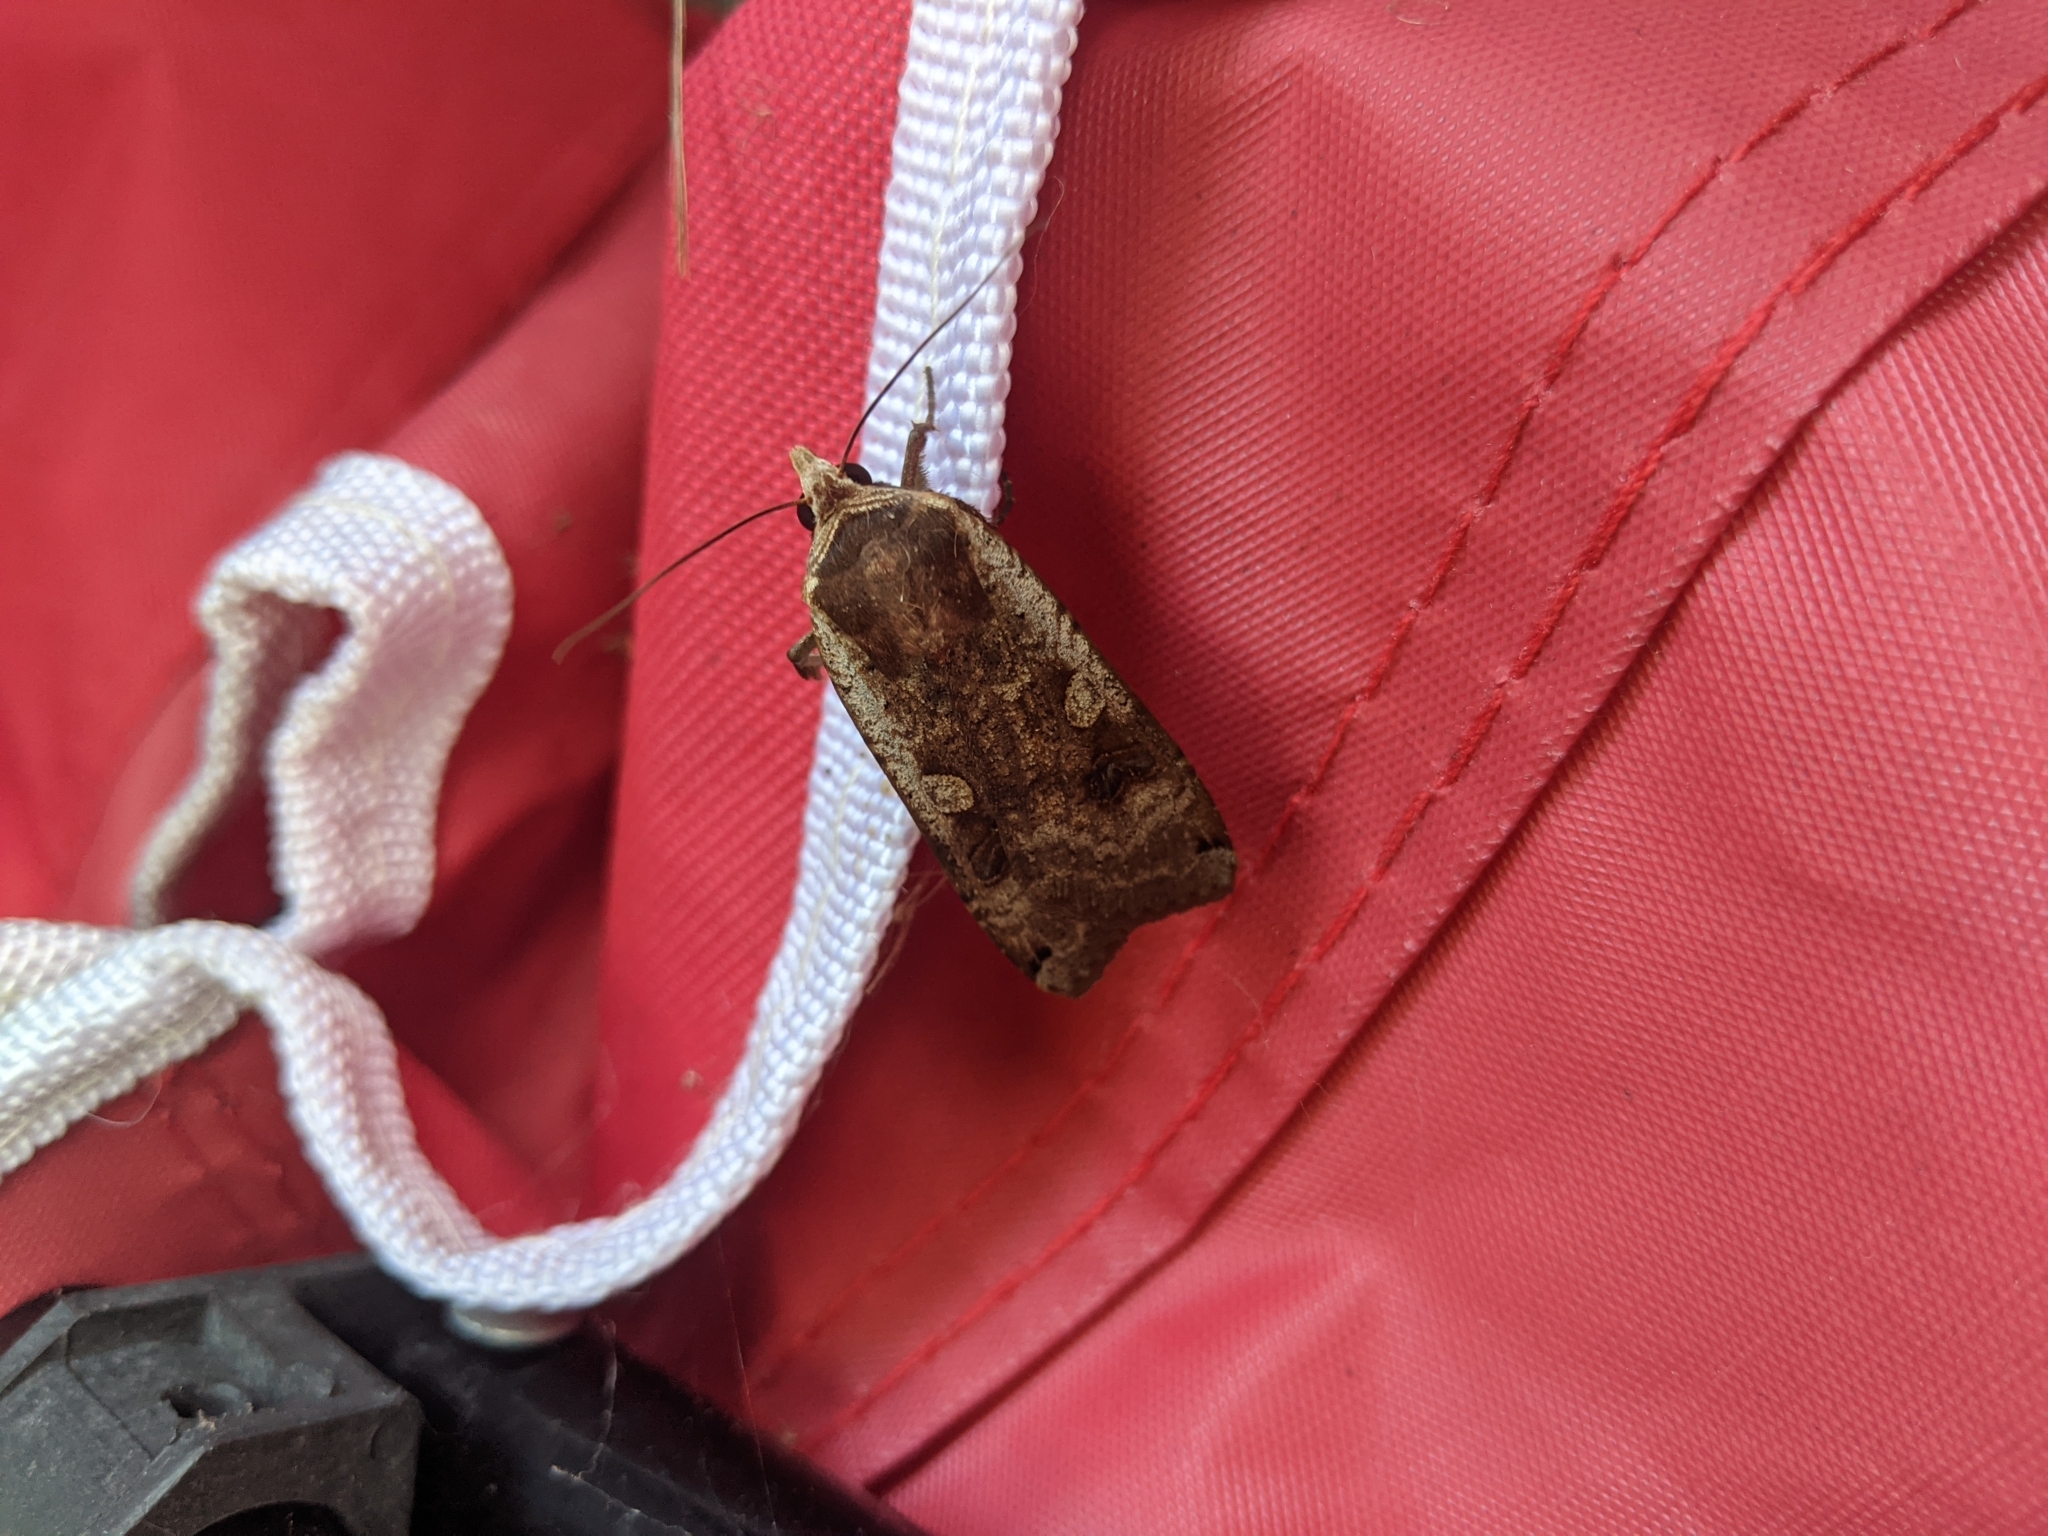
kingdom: Animalia
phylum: Arthropoda
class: Insecta
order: Lepidoptera
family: Noctuidae
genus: Noctua
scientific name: Noctua pronuba
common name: Large yellow underwing
